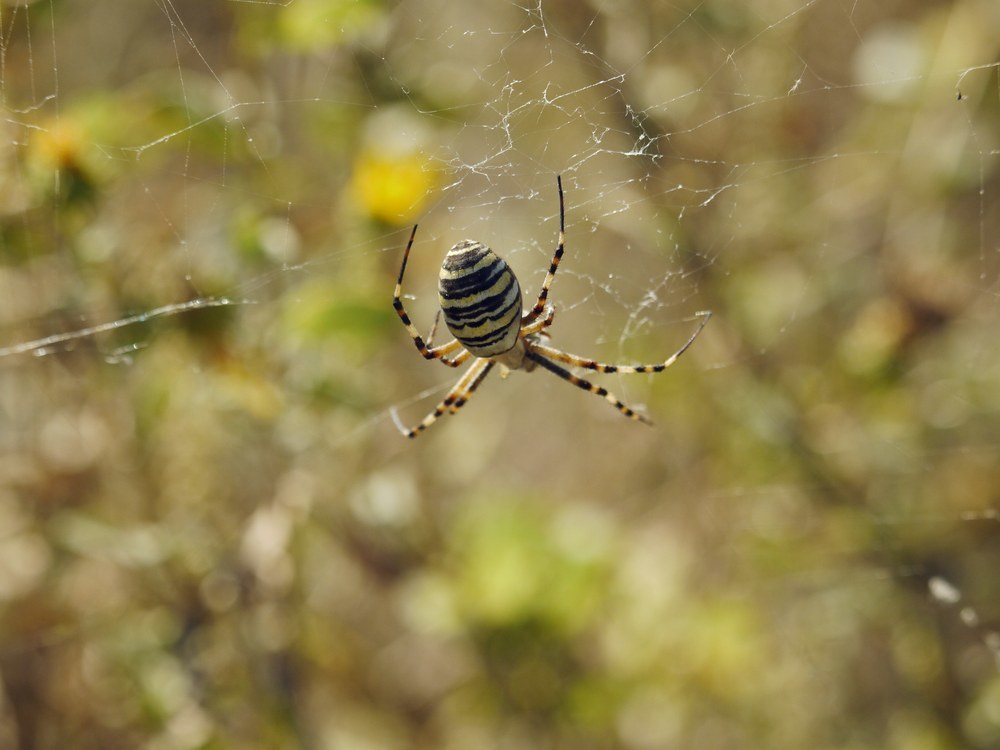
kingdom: Animalia
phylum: Arthropoda
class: Arachnida
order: Araneae
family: Araneidae
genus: Argiope
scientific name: Argiope bruennichi
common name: Wasp spider
